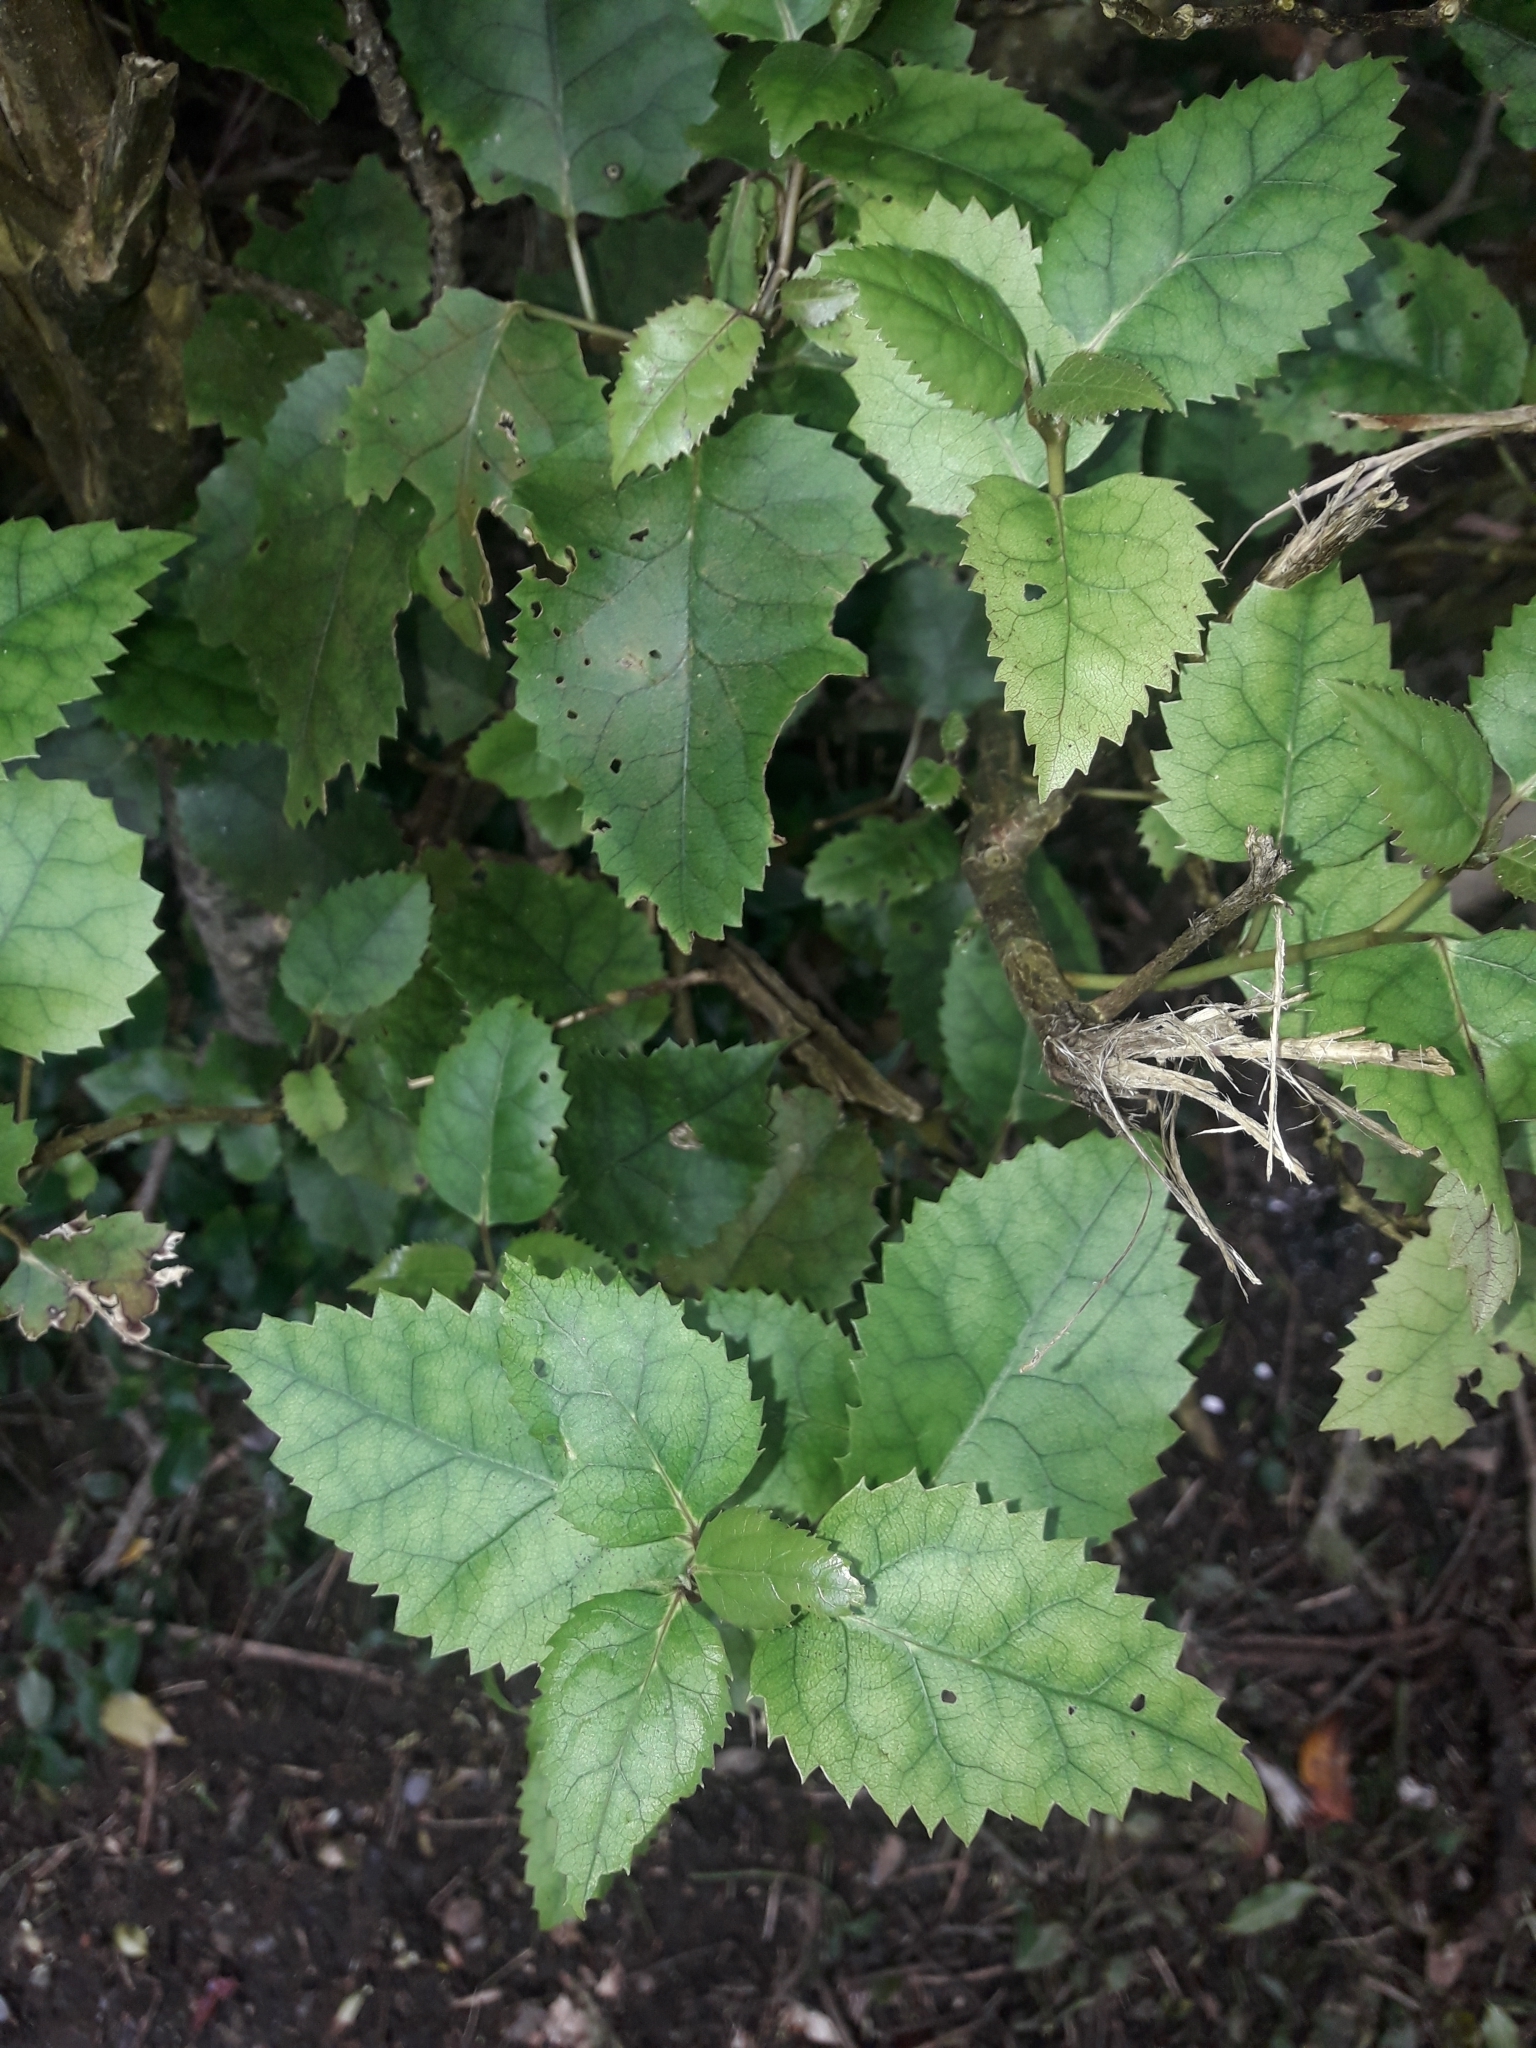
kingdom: Plantae
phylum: Tracheophyta
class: Magnoliopsida
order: Malvales
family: Malvaceae
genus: Hoheria
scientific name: Hoheria populnea
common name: Lacebark
